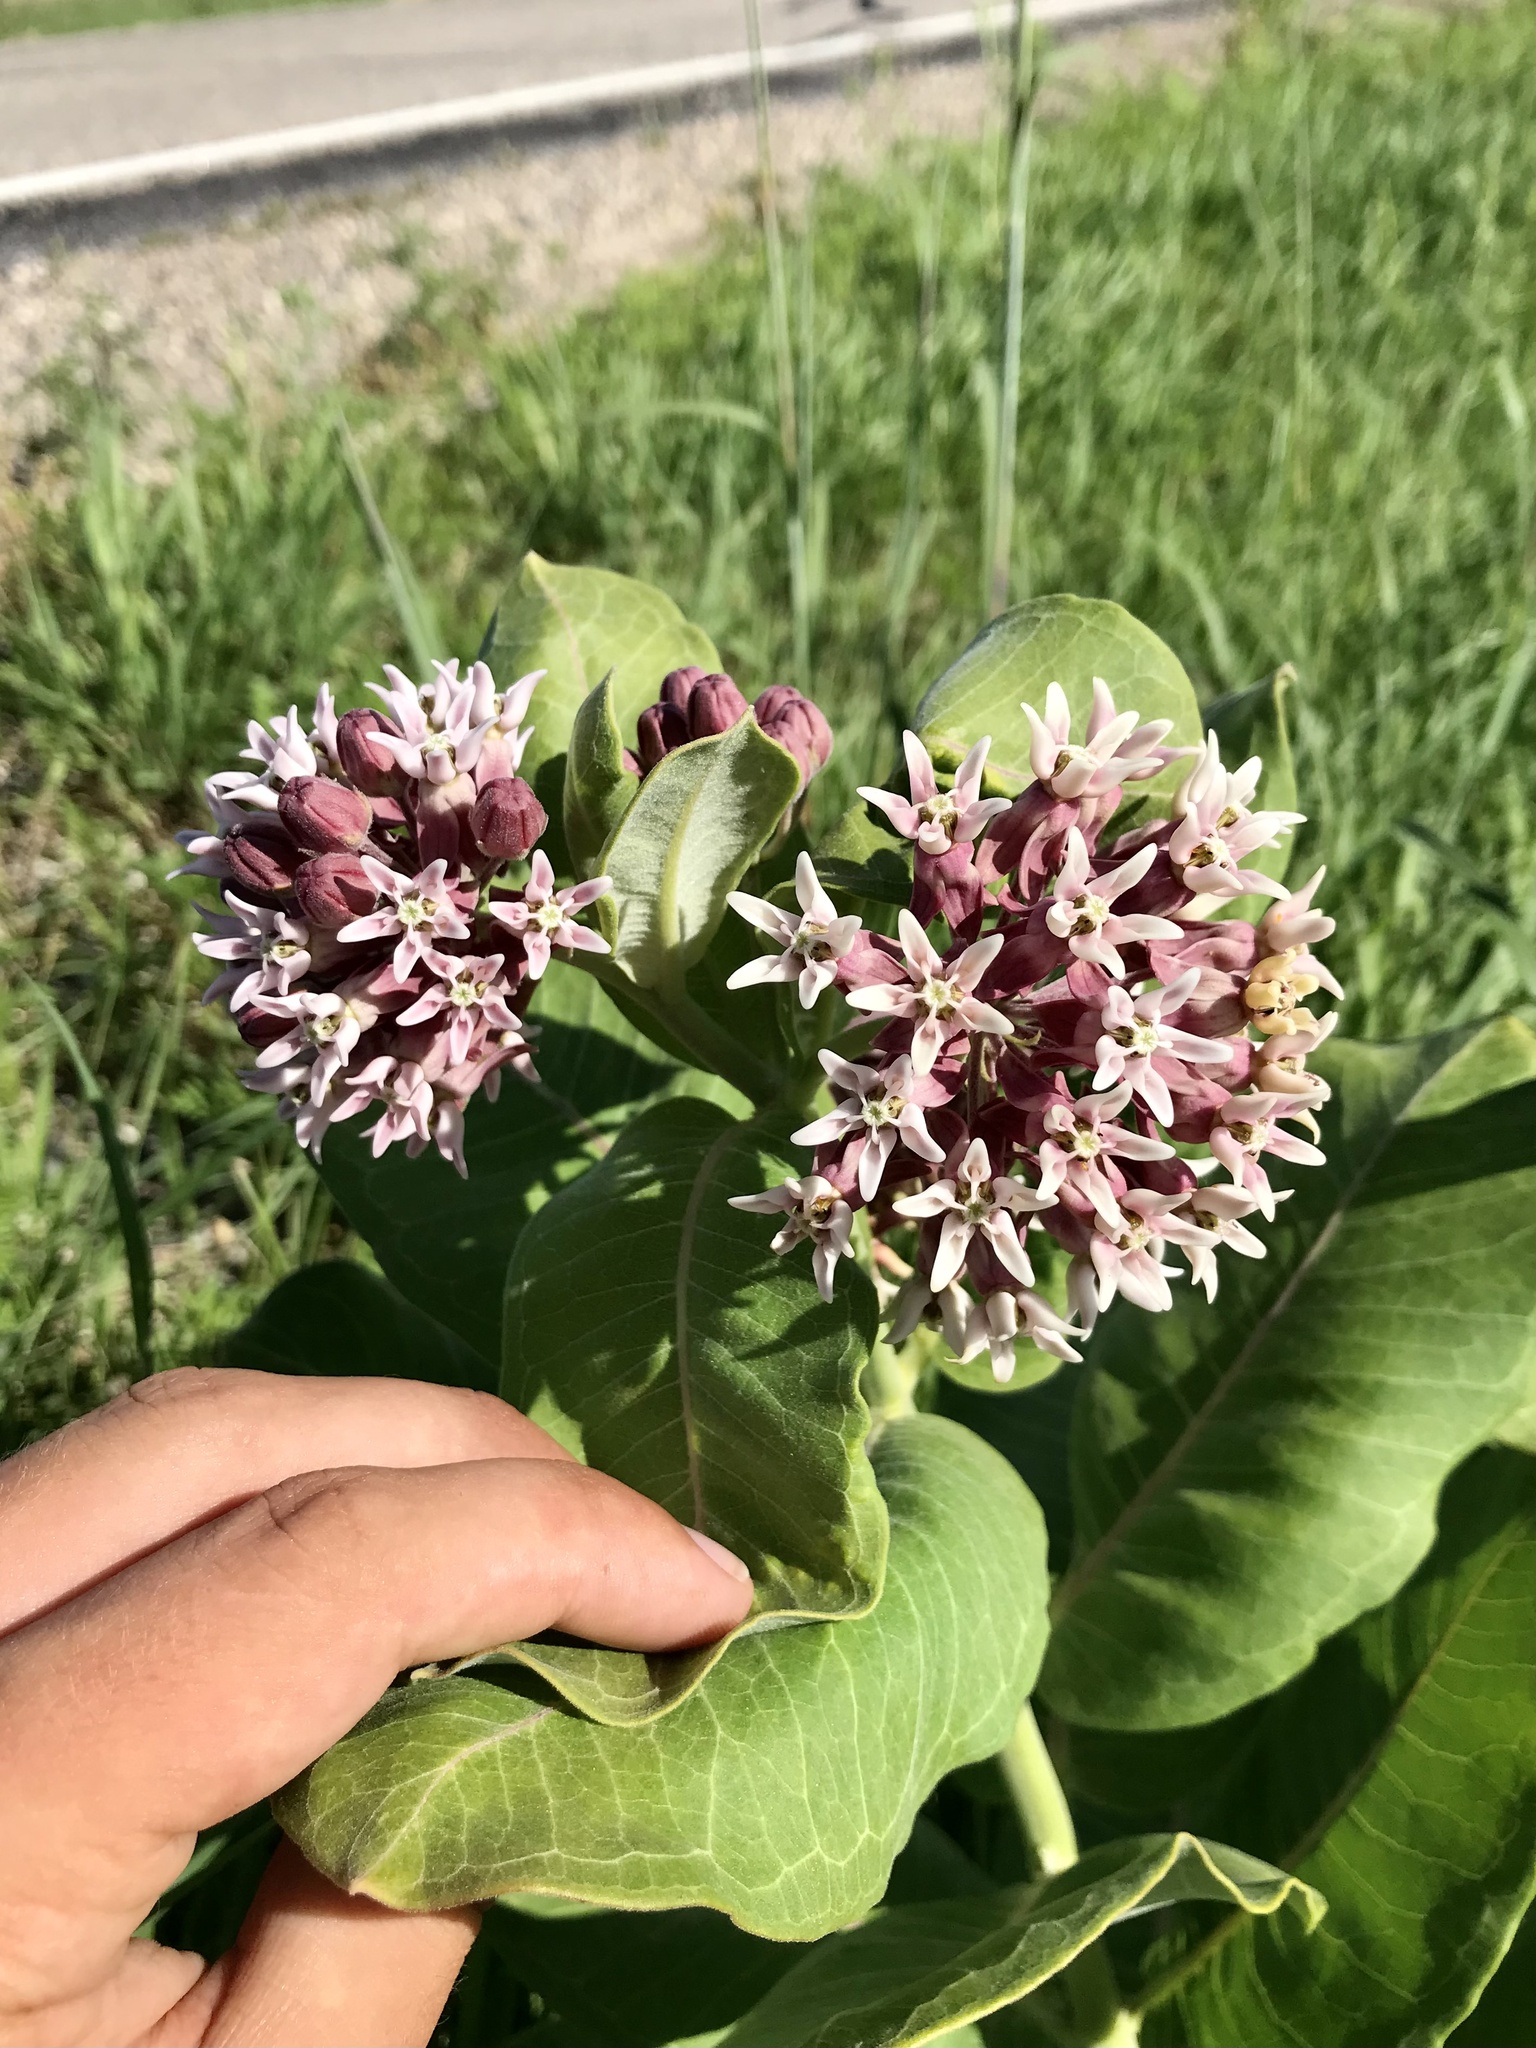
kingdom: Plantae
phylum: Tracheophyta
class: Magnoliopsida
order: Gentianales
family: Apocynaceae
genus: Asclepias
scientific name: Asclepias speciosa
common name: Showy milkweed
